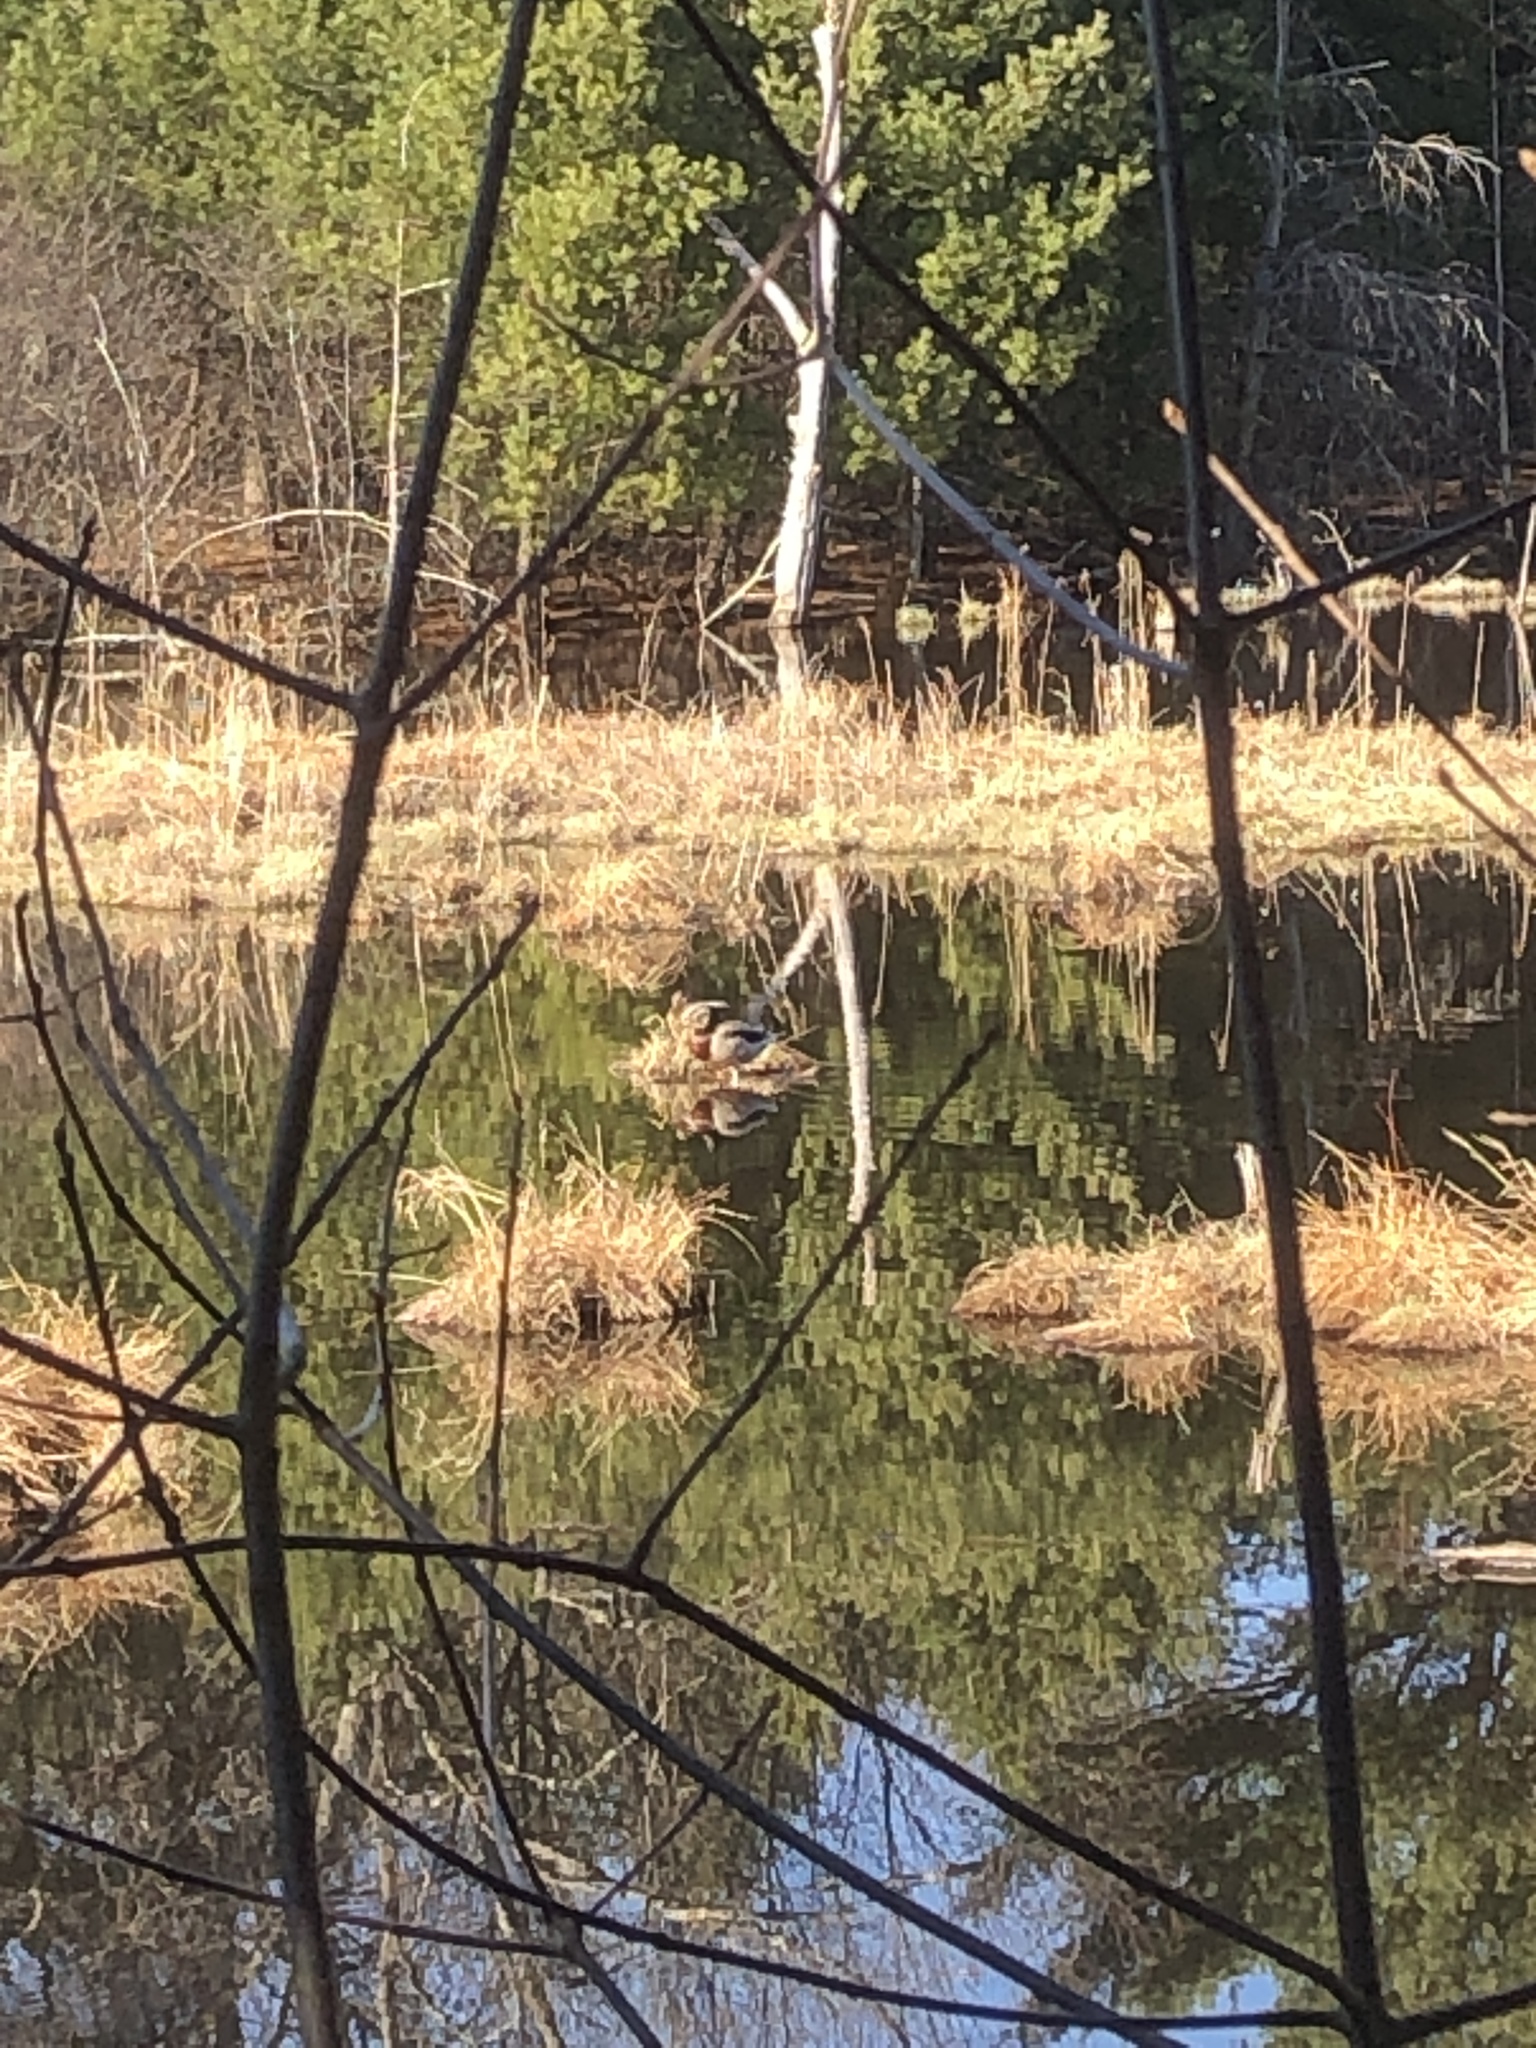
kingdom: Animalia
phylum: Chordata
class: Aves
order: Anseriformes
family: Anatidae
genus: Anas
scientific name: Anas platyrhynchos
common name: Mallard
